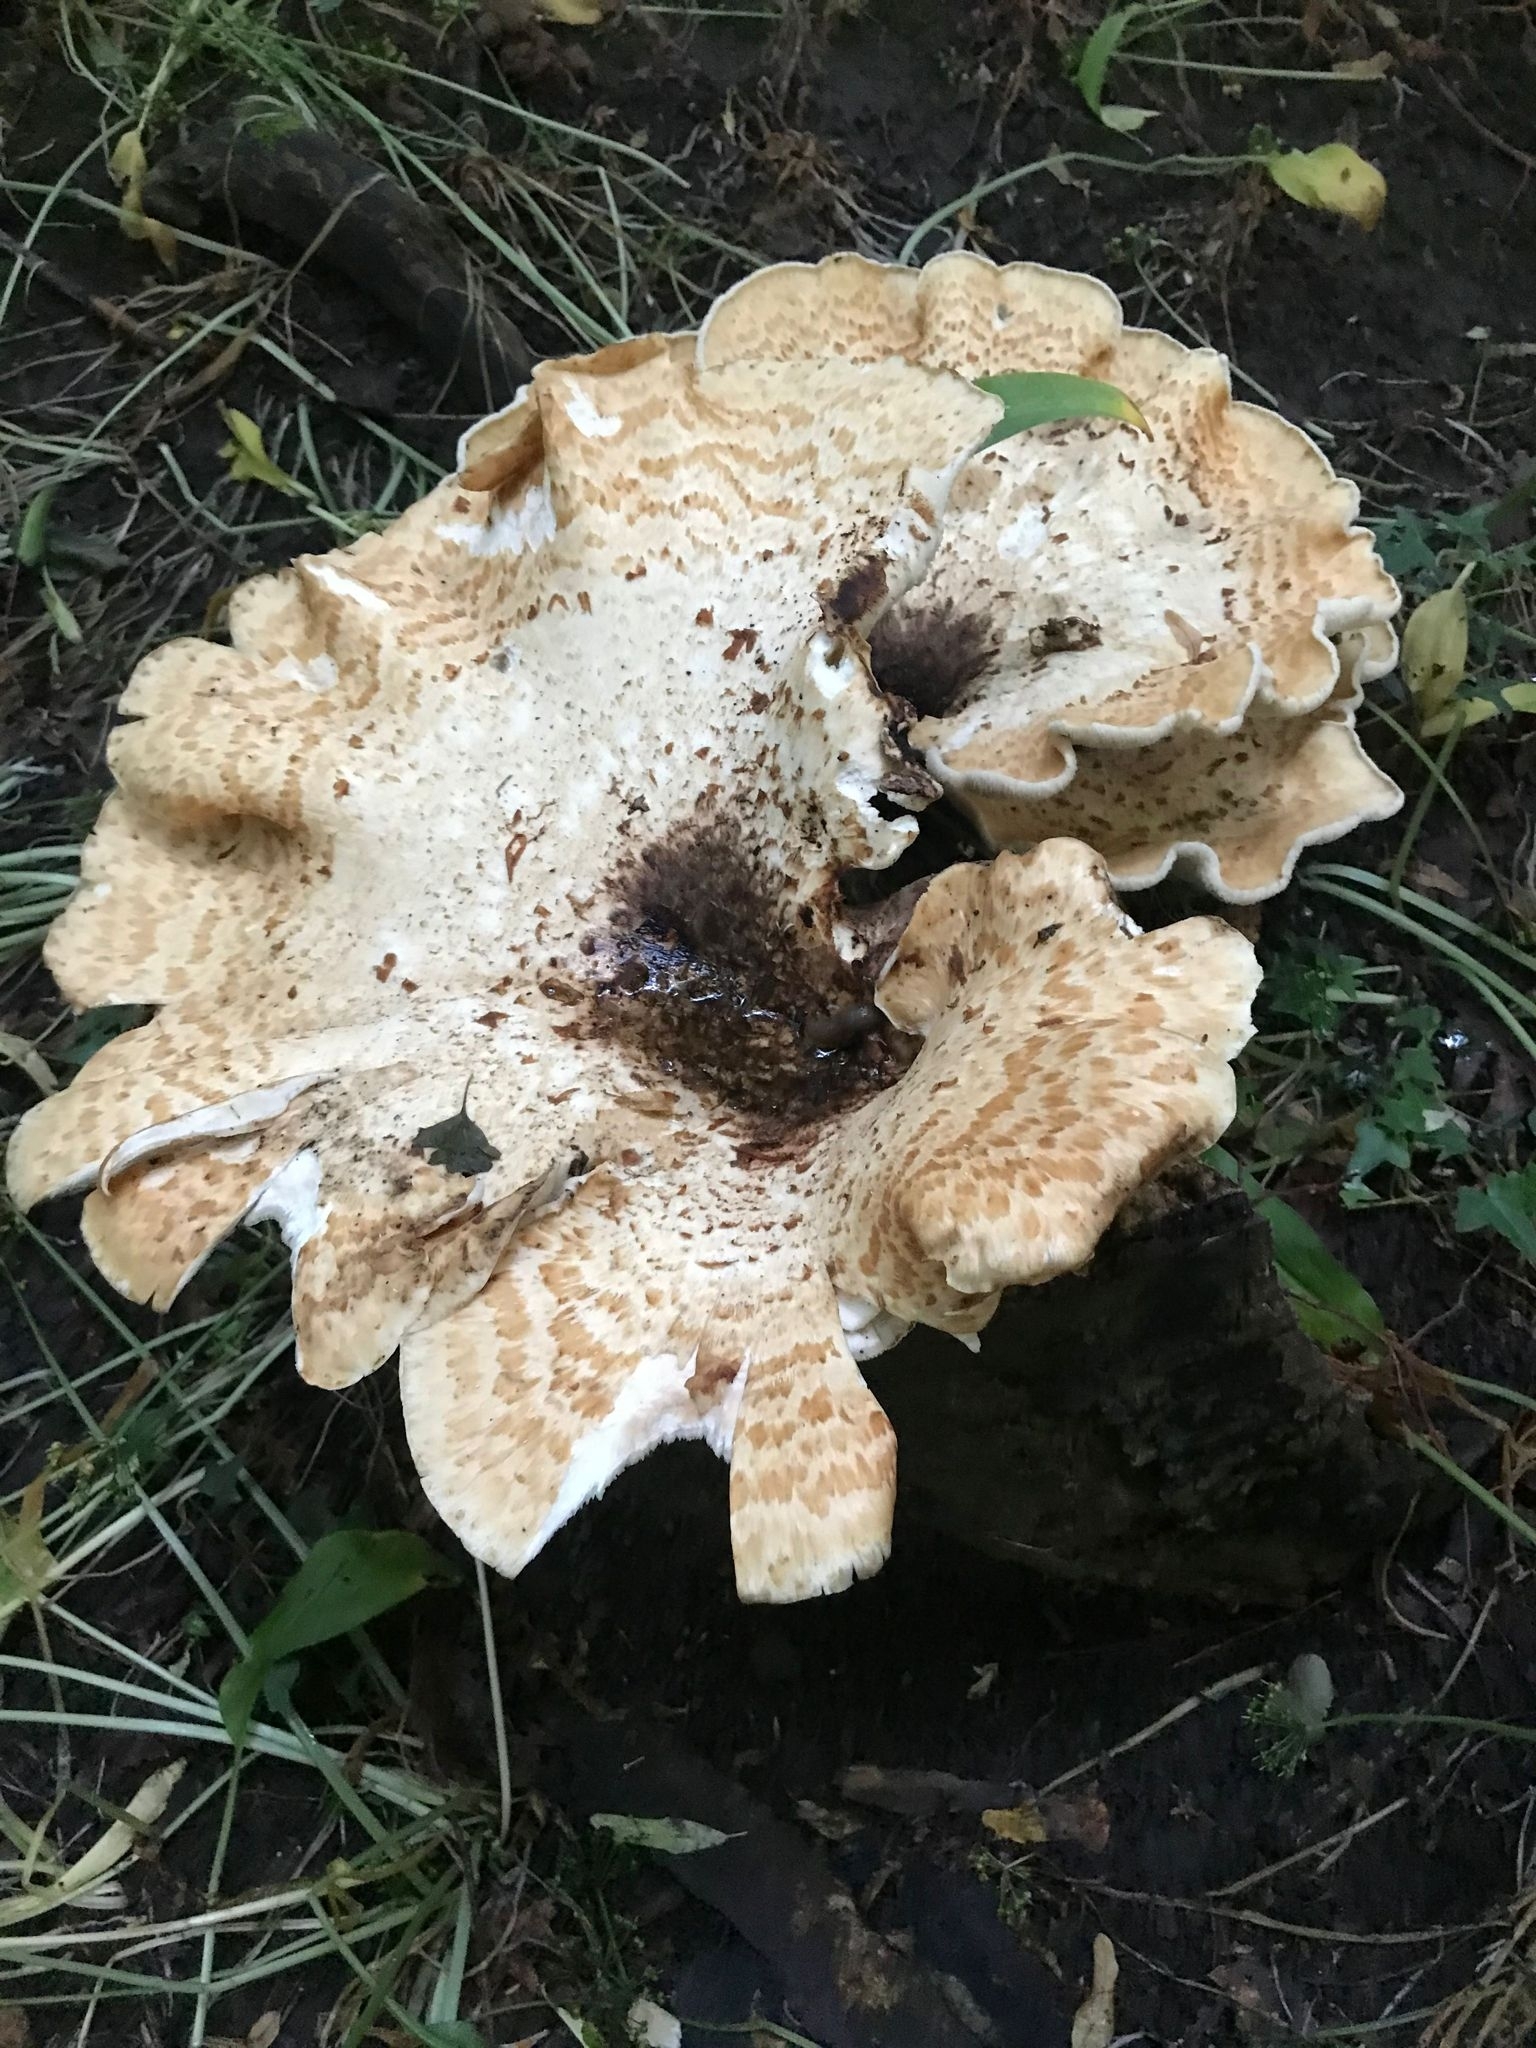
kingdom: Fungi
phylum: Basidiomycota
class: Agaricomycetes
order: Polyporales
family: Polyporaceae
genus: Cerioporus
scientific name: Cerioporus squamosus
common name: Dryad's saddle
